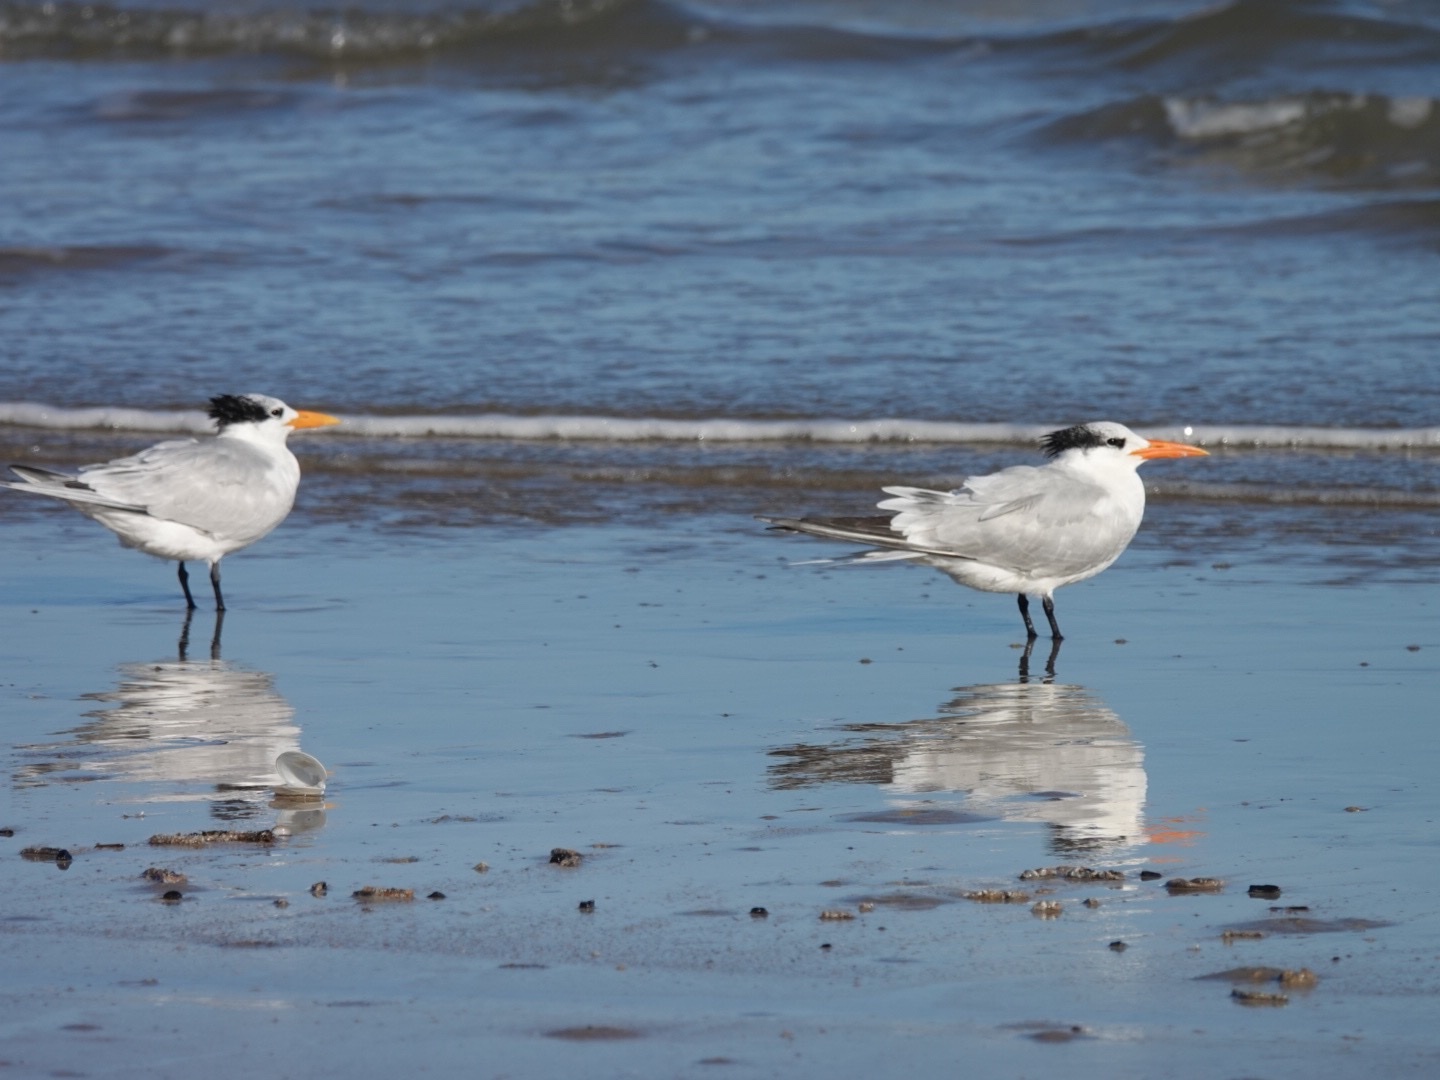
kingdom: Animalia
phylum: Chordata
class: Aves
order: Charadriiformes
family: Laridae
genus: Thalasseus
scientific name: Thalasseus maximus
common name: Royal tern
